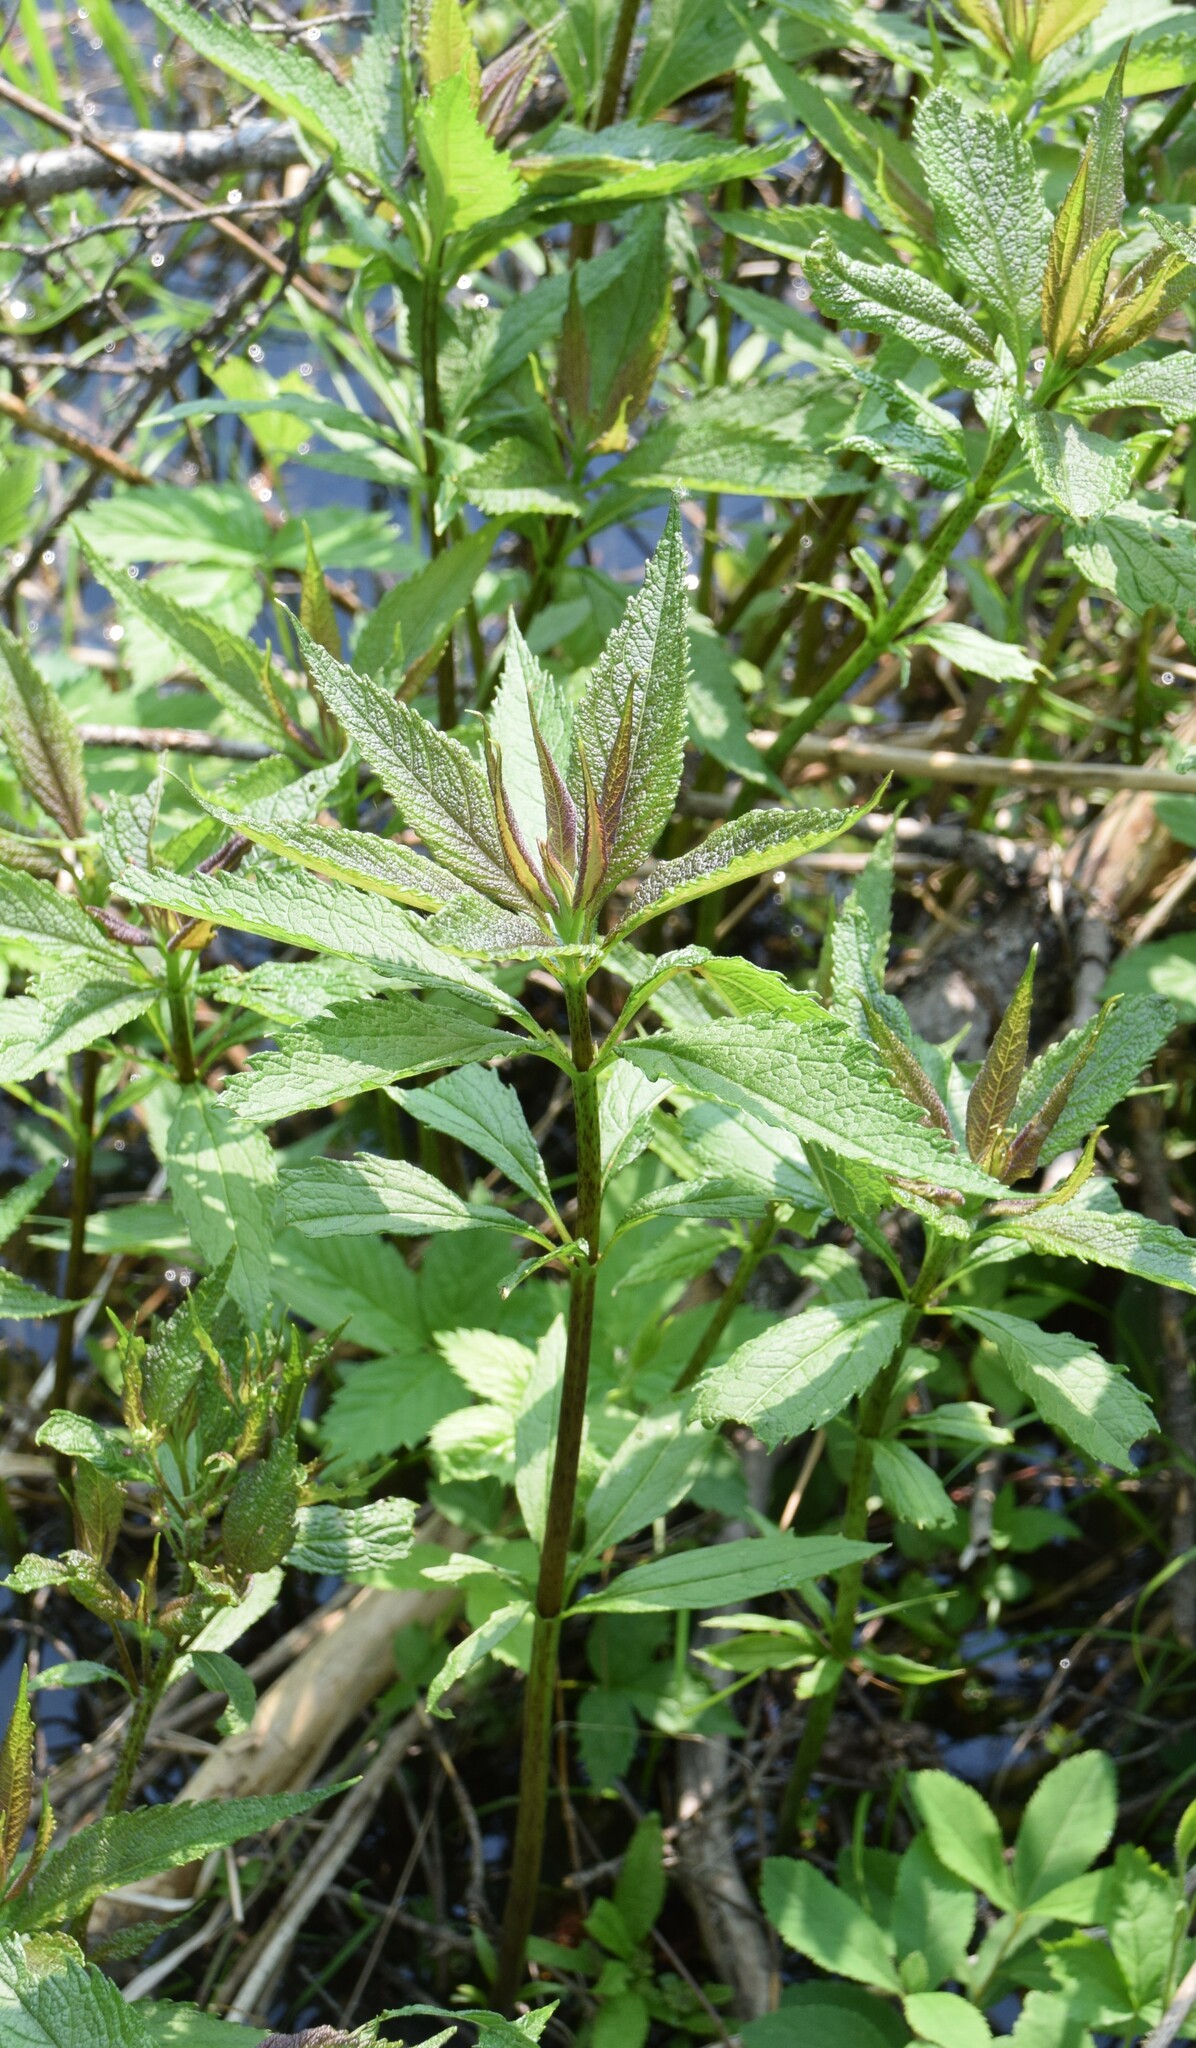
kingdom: Plantae
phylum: Tracheophyta
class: Magnoliopsida
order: Asterales
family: Asteraceae
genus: Eutrochium
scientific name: Eutrochium maculatum
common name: Spotted joe pye weed
